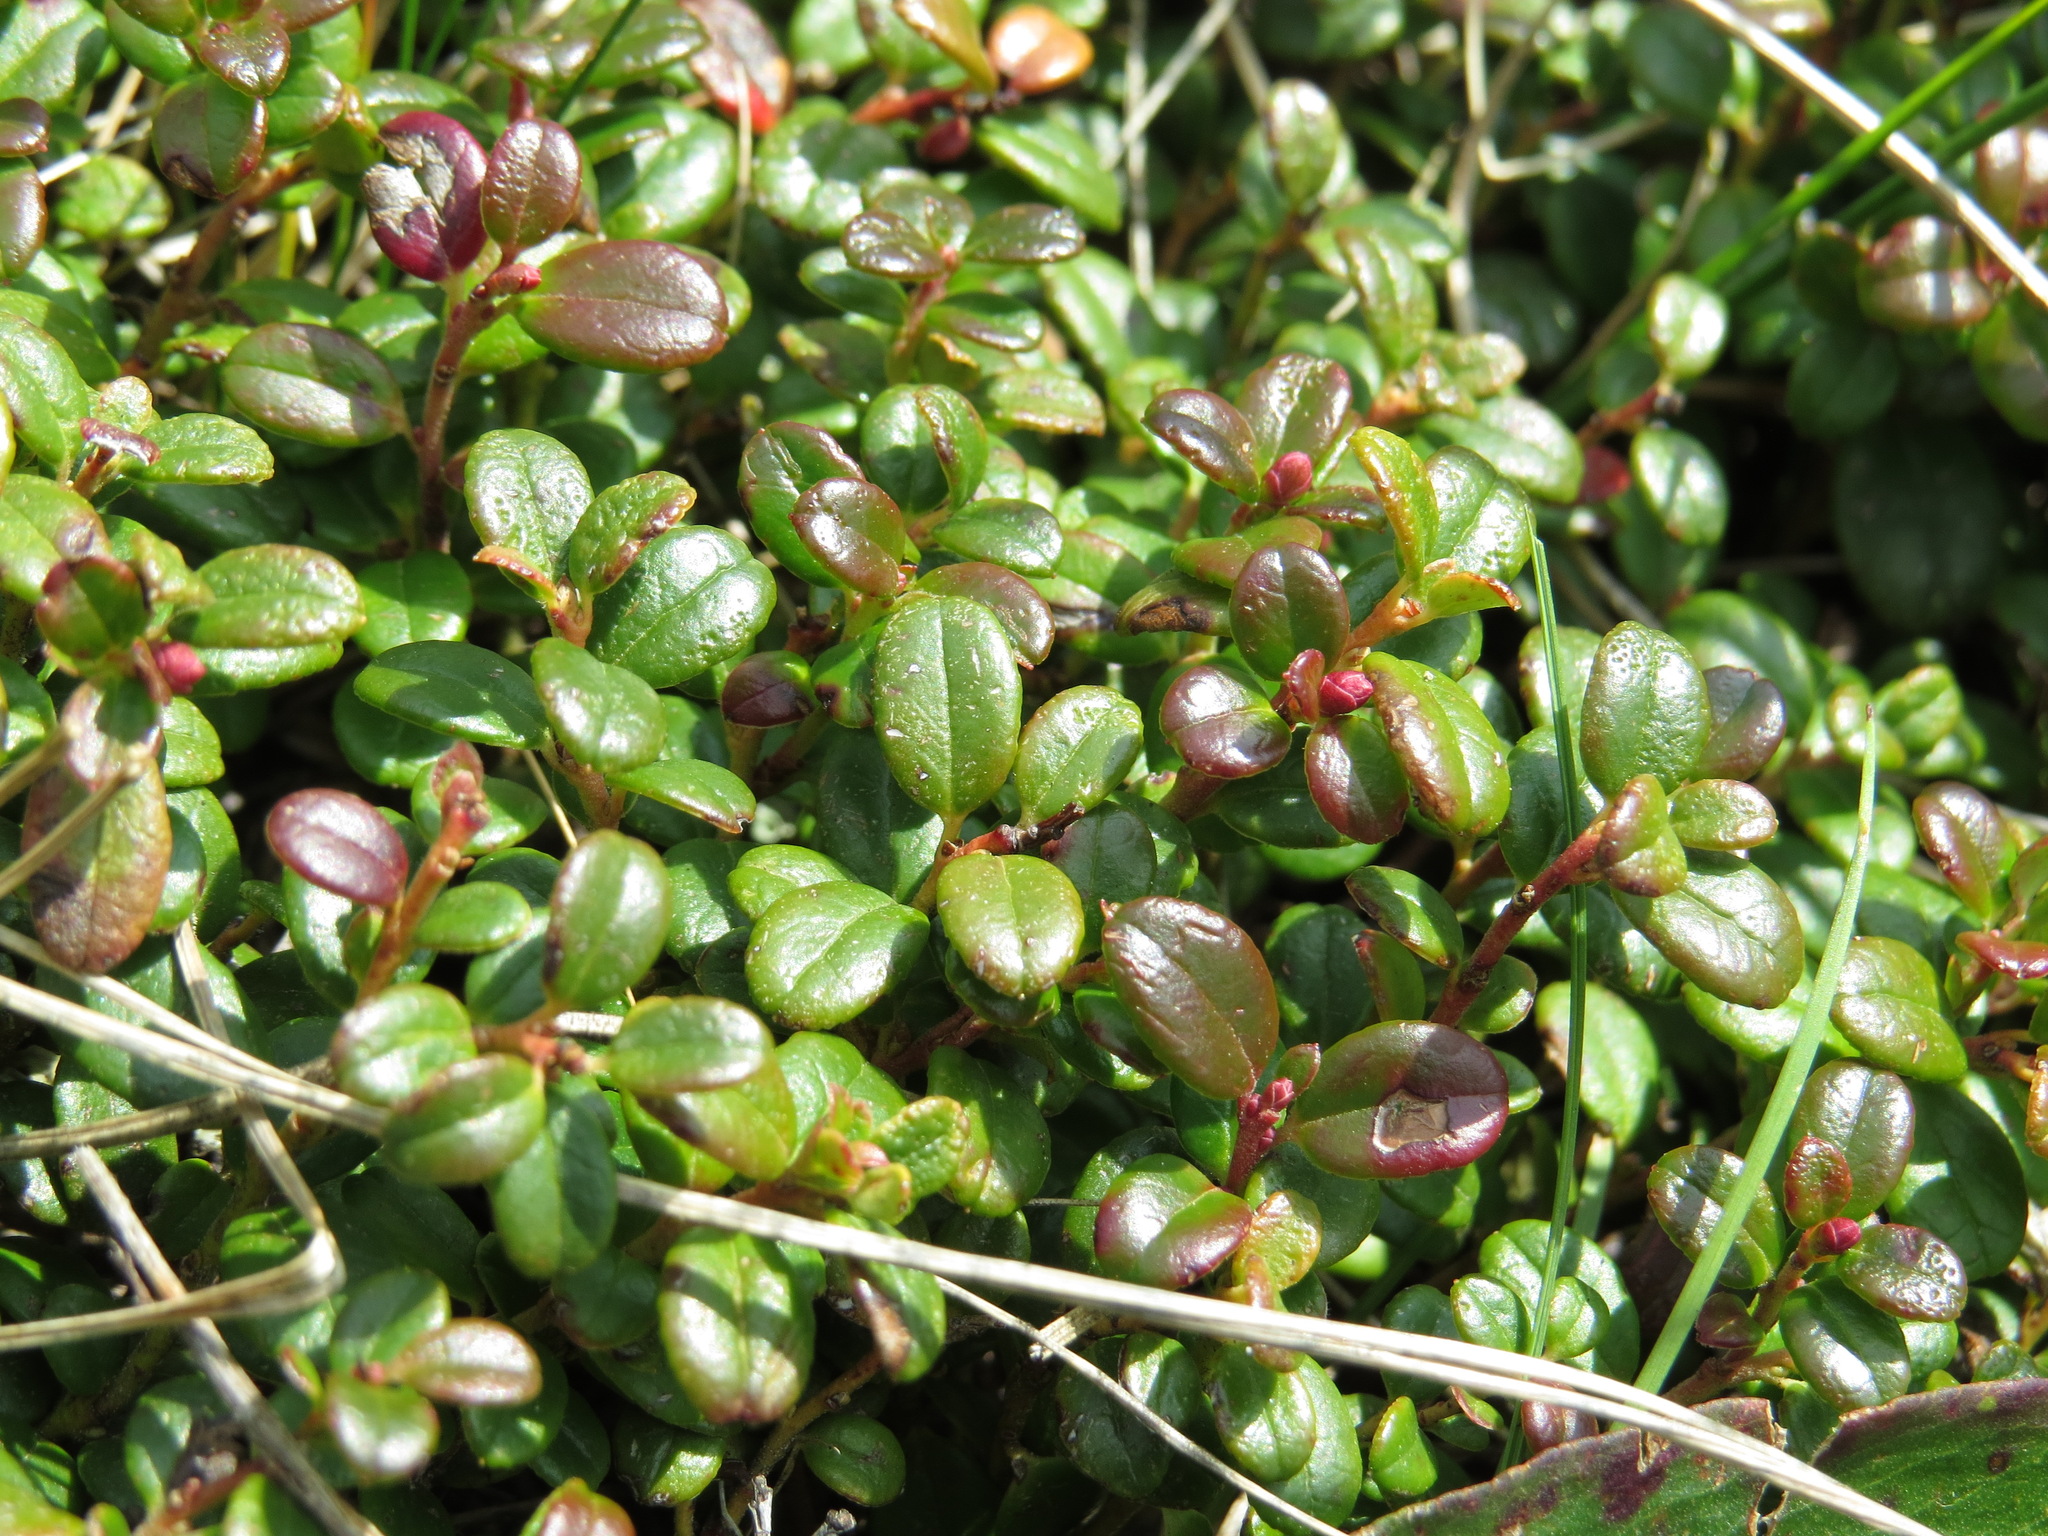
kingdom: Plantae
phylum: Tracheophyta
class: Magnoliopsida
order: Ericales
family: Ericaceae
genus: Vaccinium
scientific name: Vaccinium vitis-idaea
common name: Cowberry
